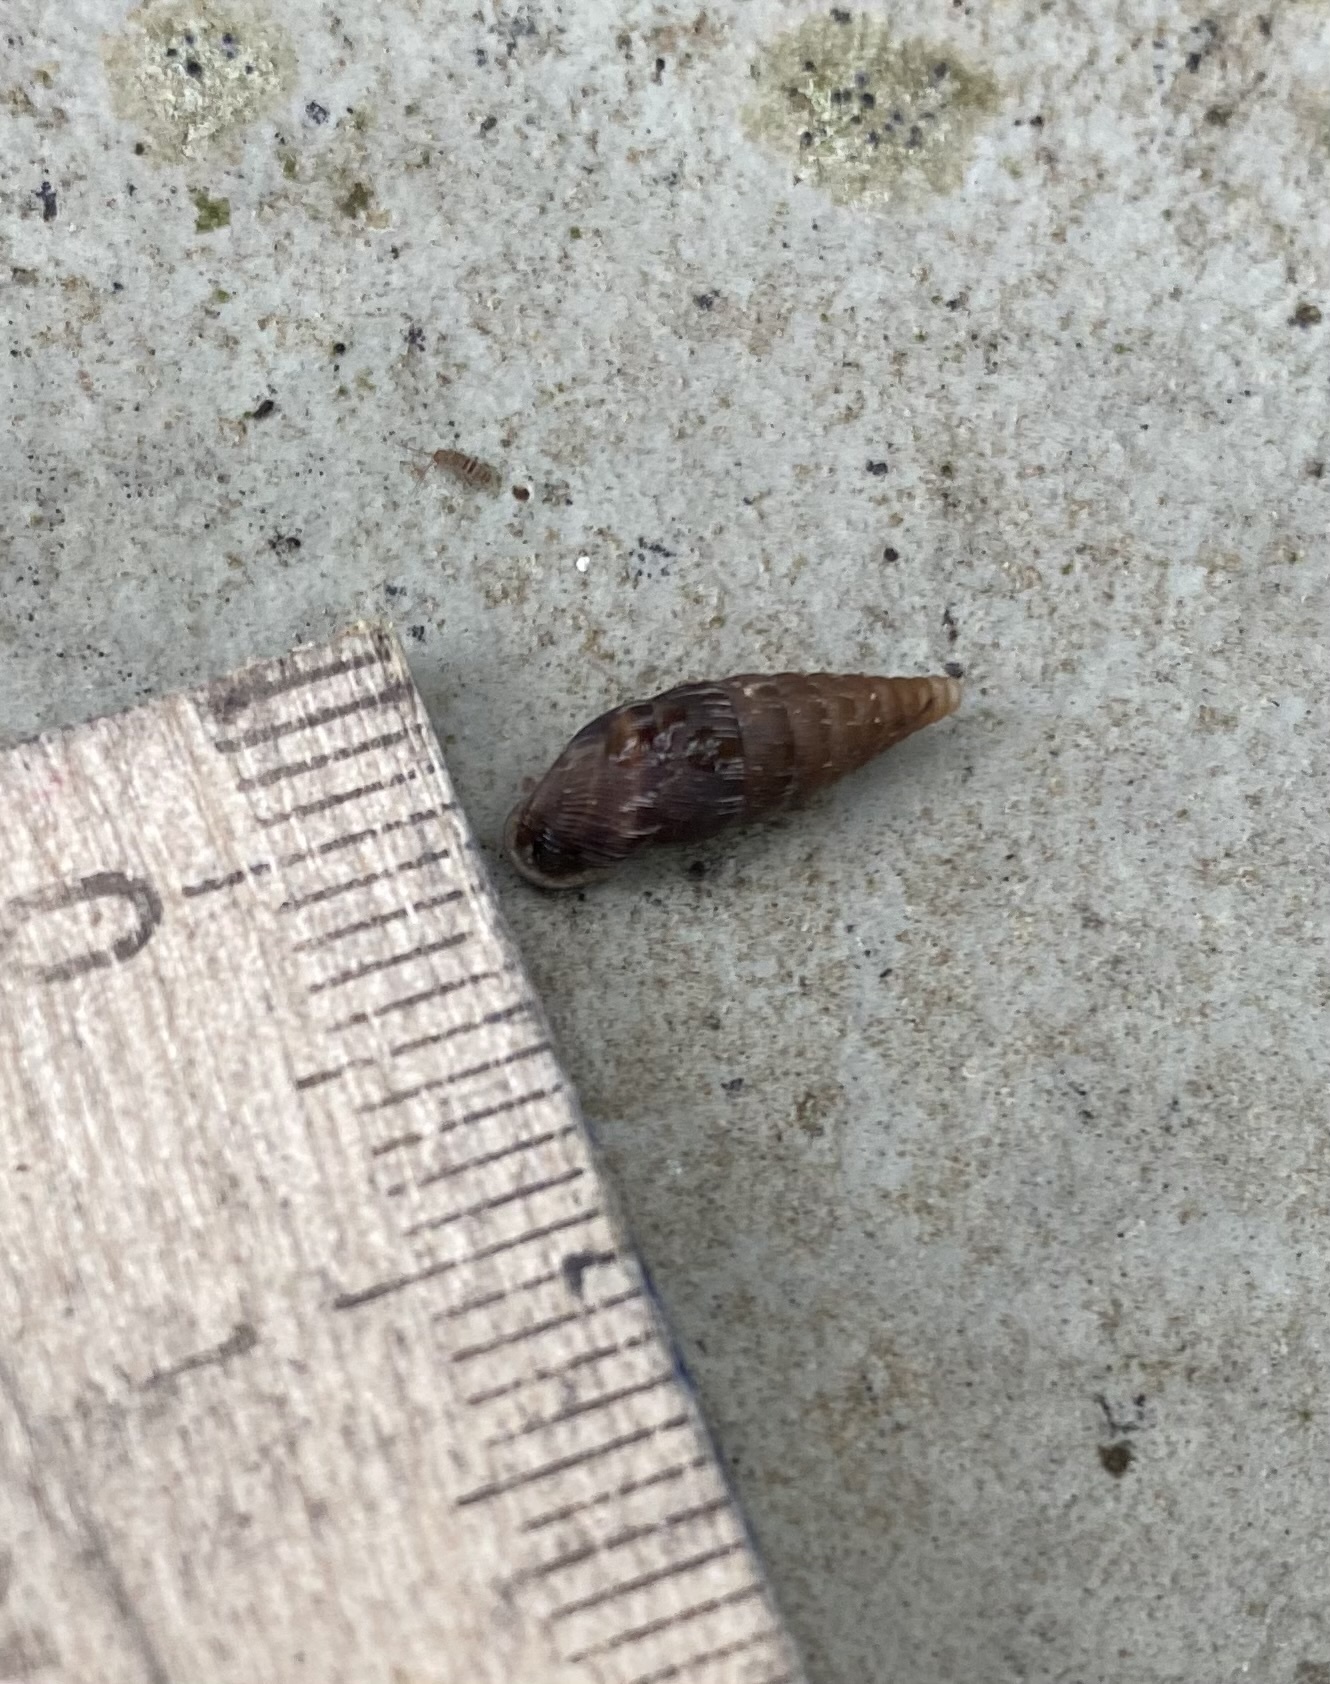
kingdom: Animalia
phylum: Mollusca
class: Gastropoda
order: Stylommatophora
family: Clausiliidae
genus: Elia
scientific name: Elia novorossica
